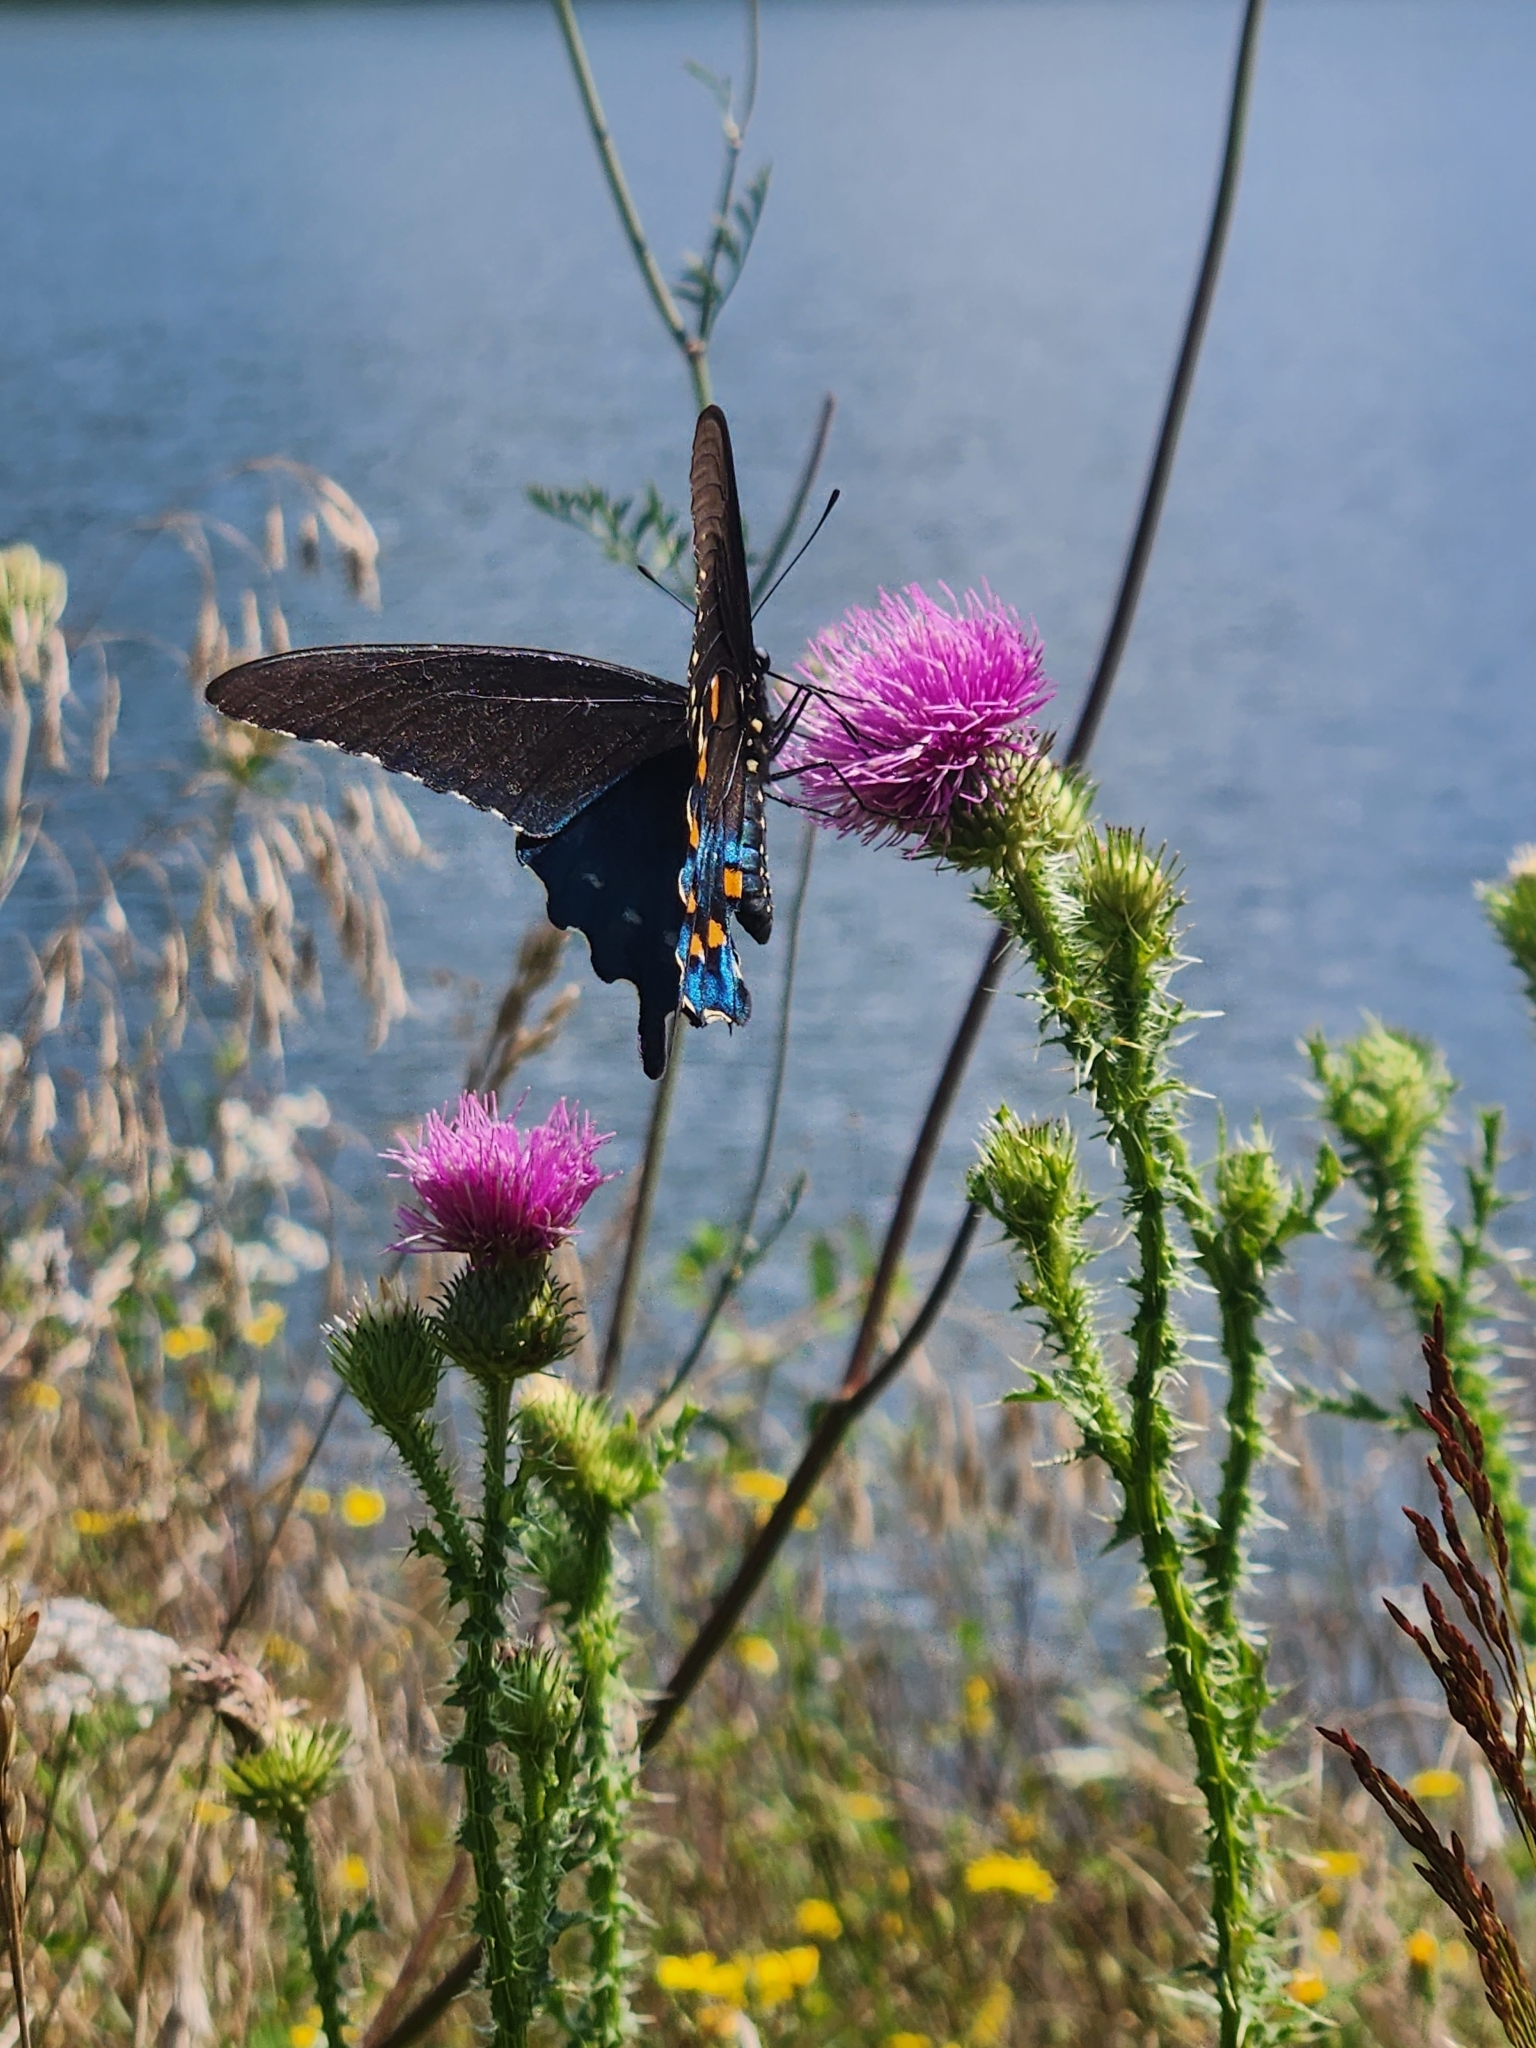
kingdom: Animalia
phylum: Arthropoda
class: Insecta
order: Lepidoptera
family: Papilionidae
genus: Battus
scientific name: Battus philenor
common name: Pipevine swallowtail
